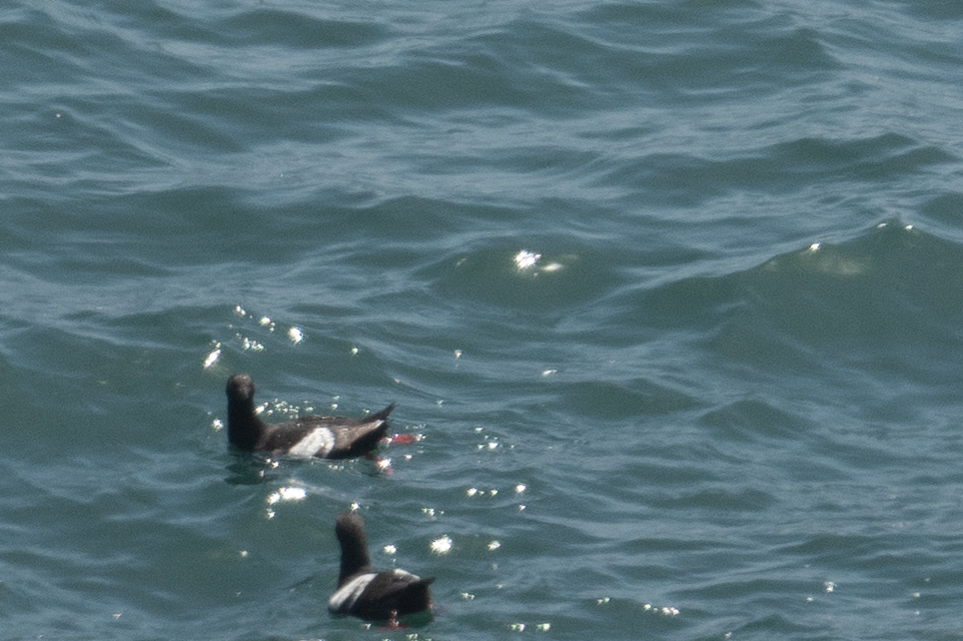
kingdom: Animalia
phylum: Chordata
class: Aves
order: Charadriiformes
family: Alcidae
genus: Cepphus
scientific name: Cepphus columba
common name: Pigeon guillemot
